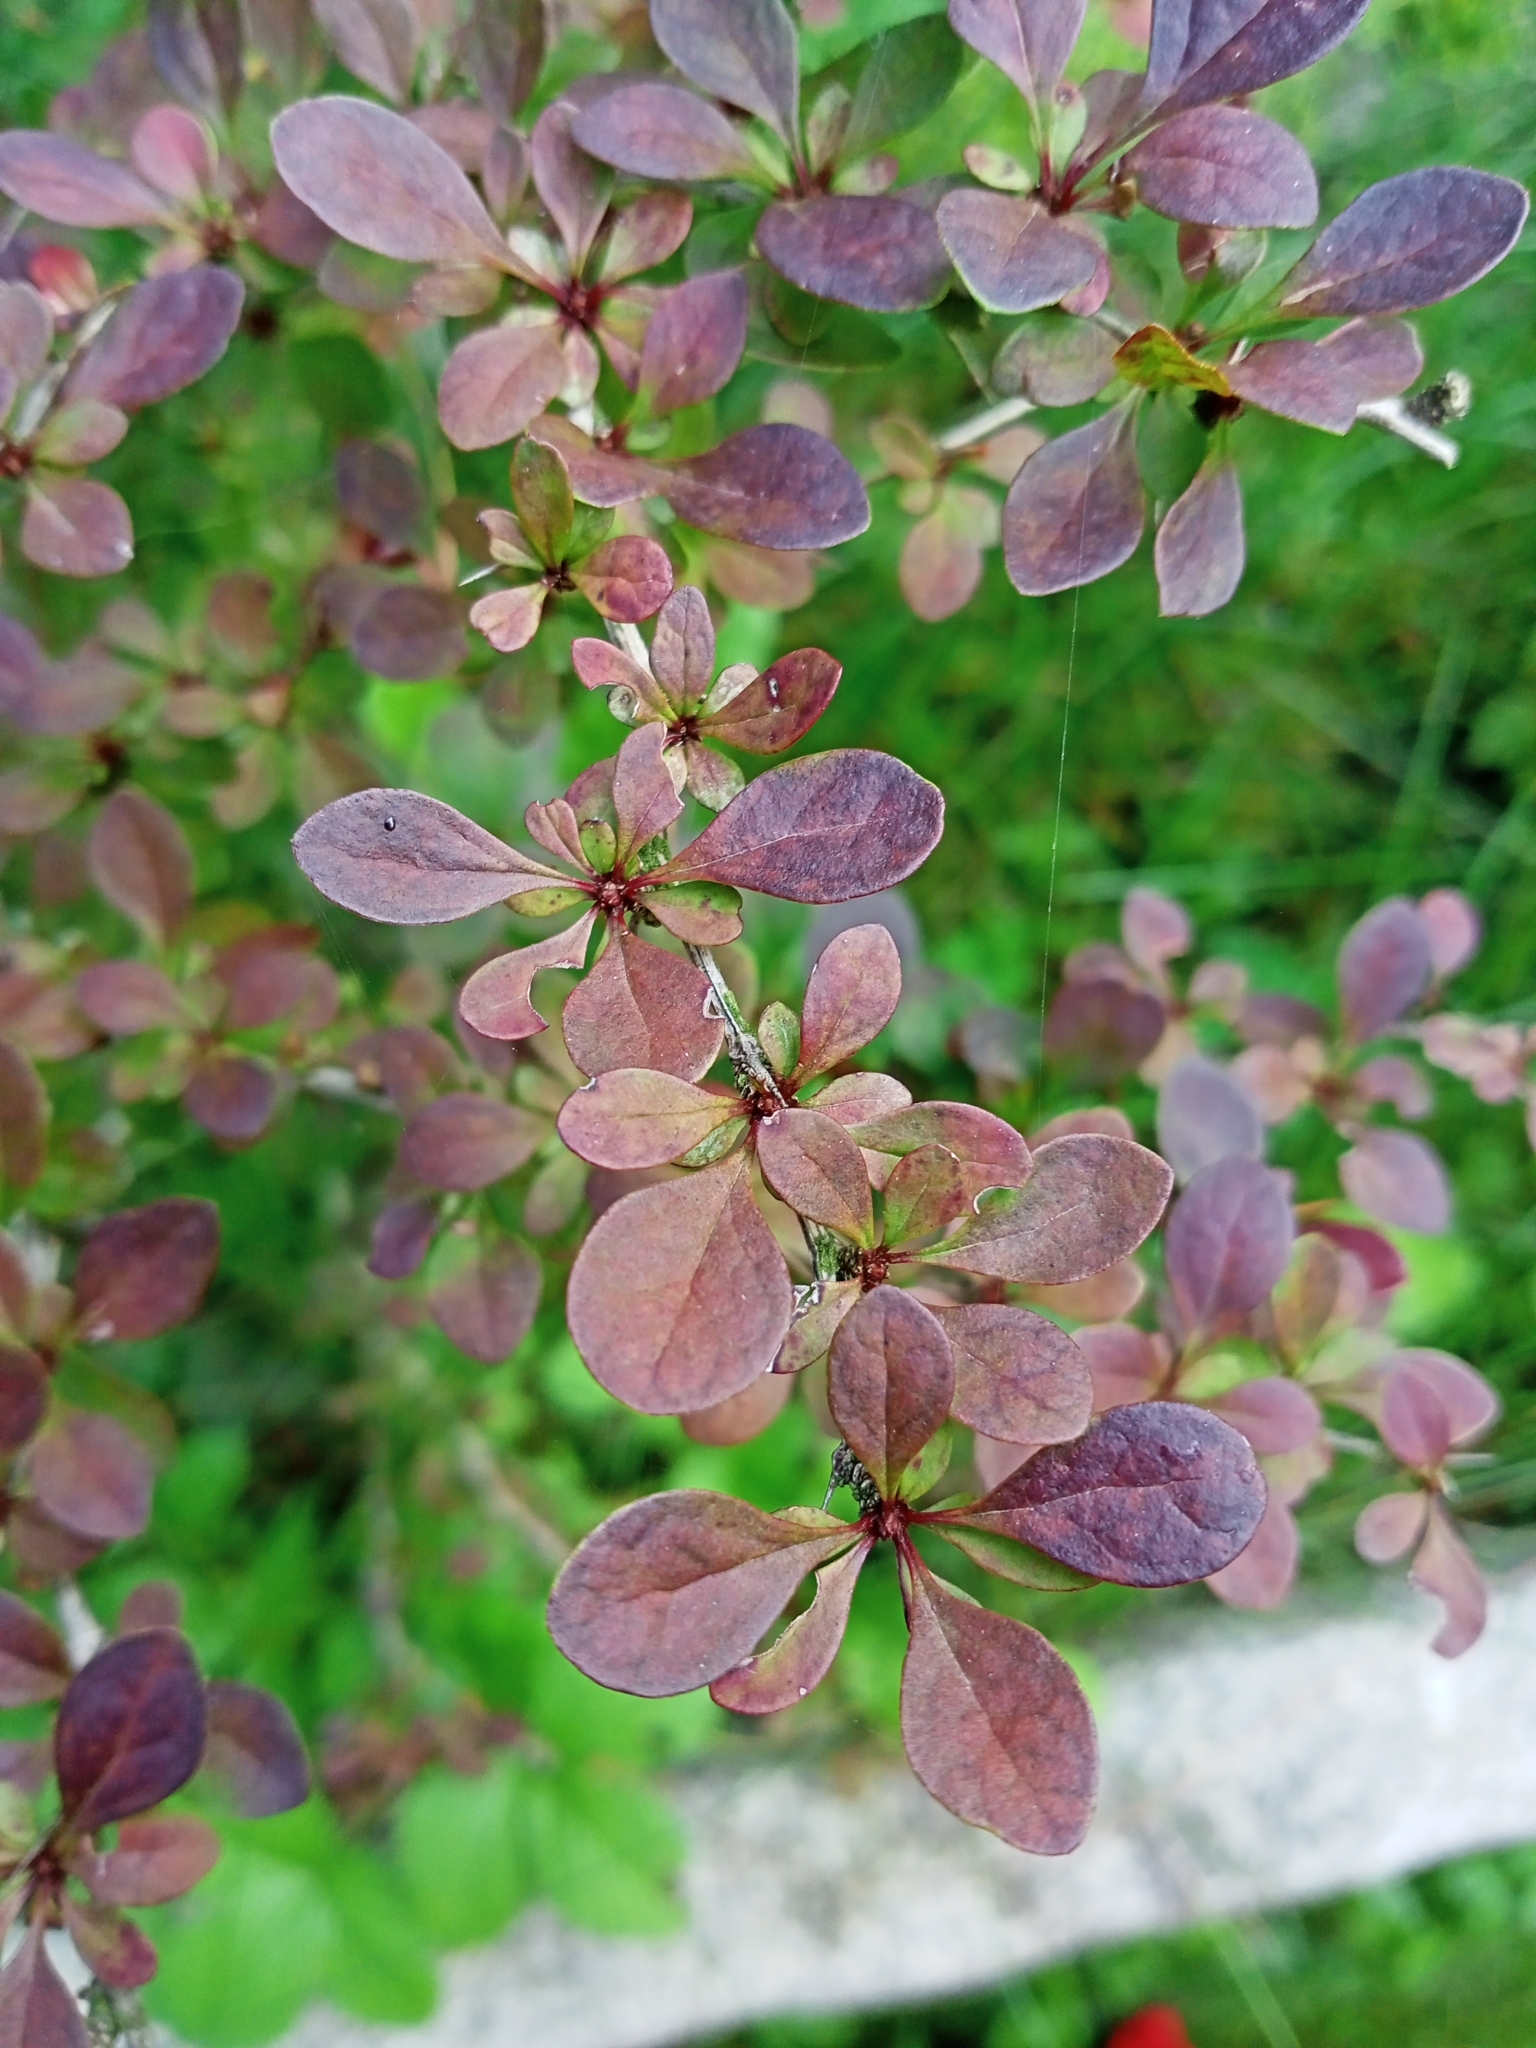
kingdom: Plantae
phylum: Tracheophyta
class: Magnoliopsida
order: Ranunculales
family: Berberidaceae
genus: Berberis
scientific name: Berberis thunbergii
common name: Japanese barberry
